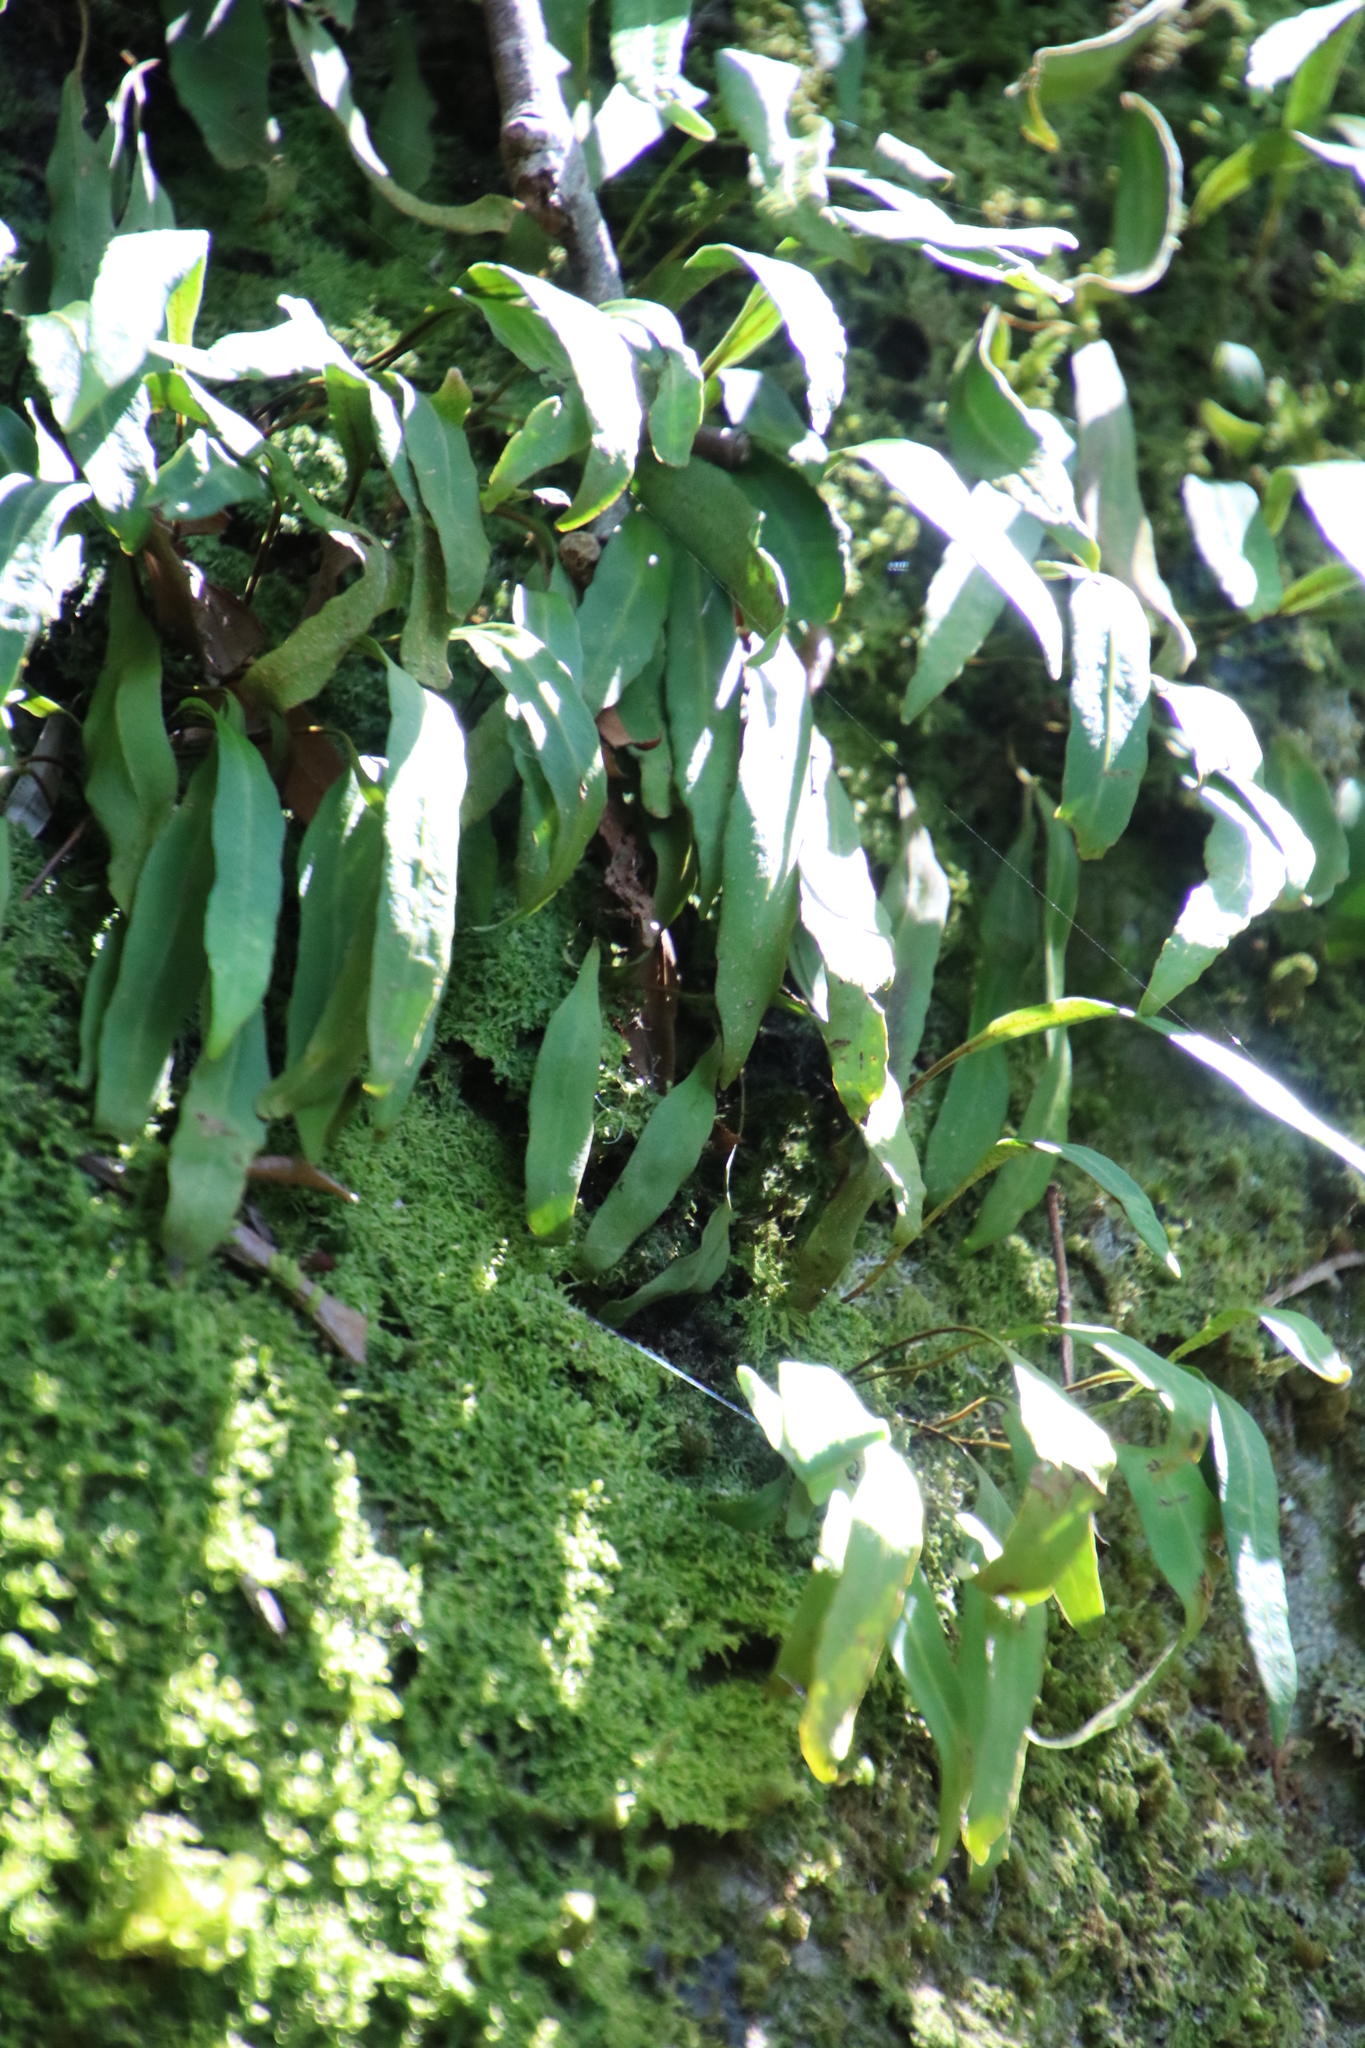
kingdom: Plantae
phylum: Tracheophyta
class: Polypodiopsida
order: Polypodiales
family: Polypodiaceae
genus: Pleopeltis
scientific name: Pleopeltis macrocarpa
